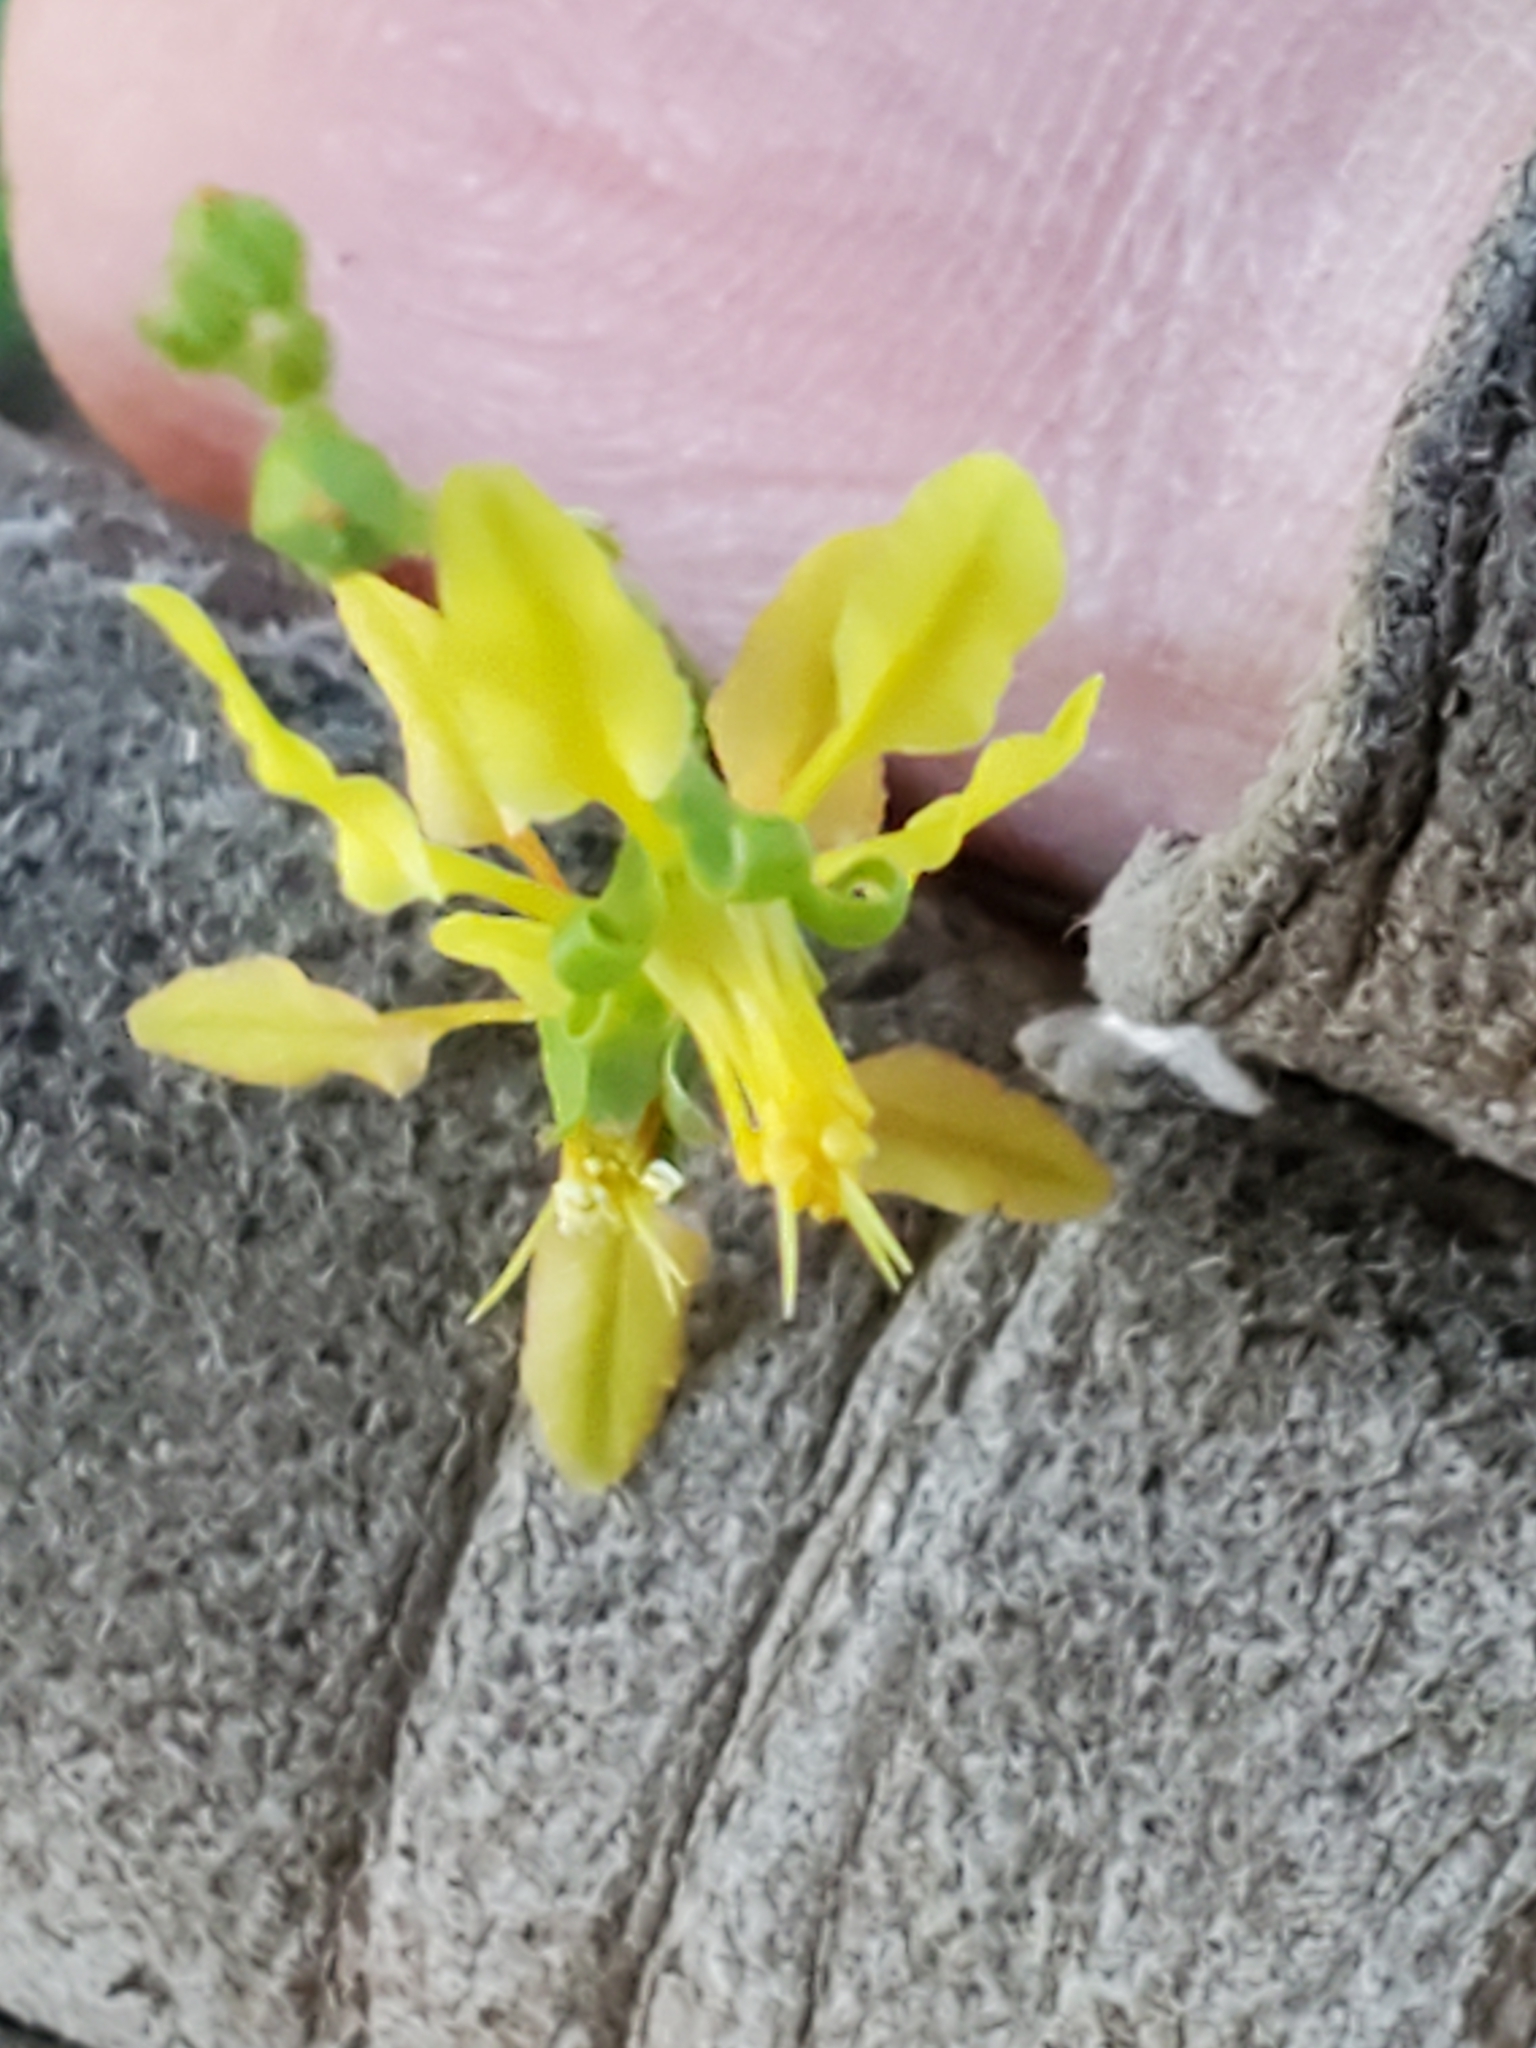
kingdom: Plantae
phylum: Tracheophyta
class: Magnoliopsida
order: Malpighiales
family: Malpighiaceae
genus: Galphimia
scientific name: Galphimia angustifolia
